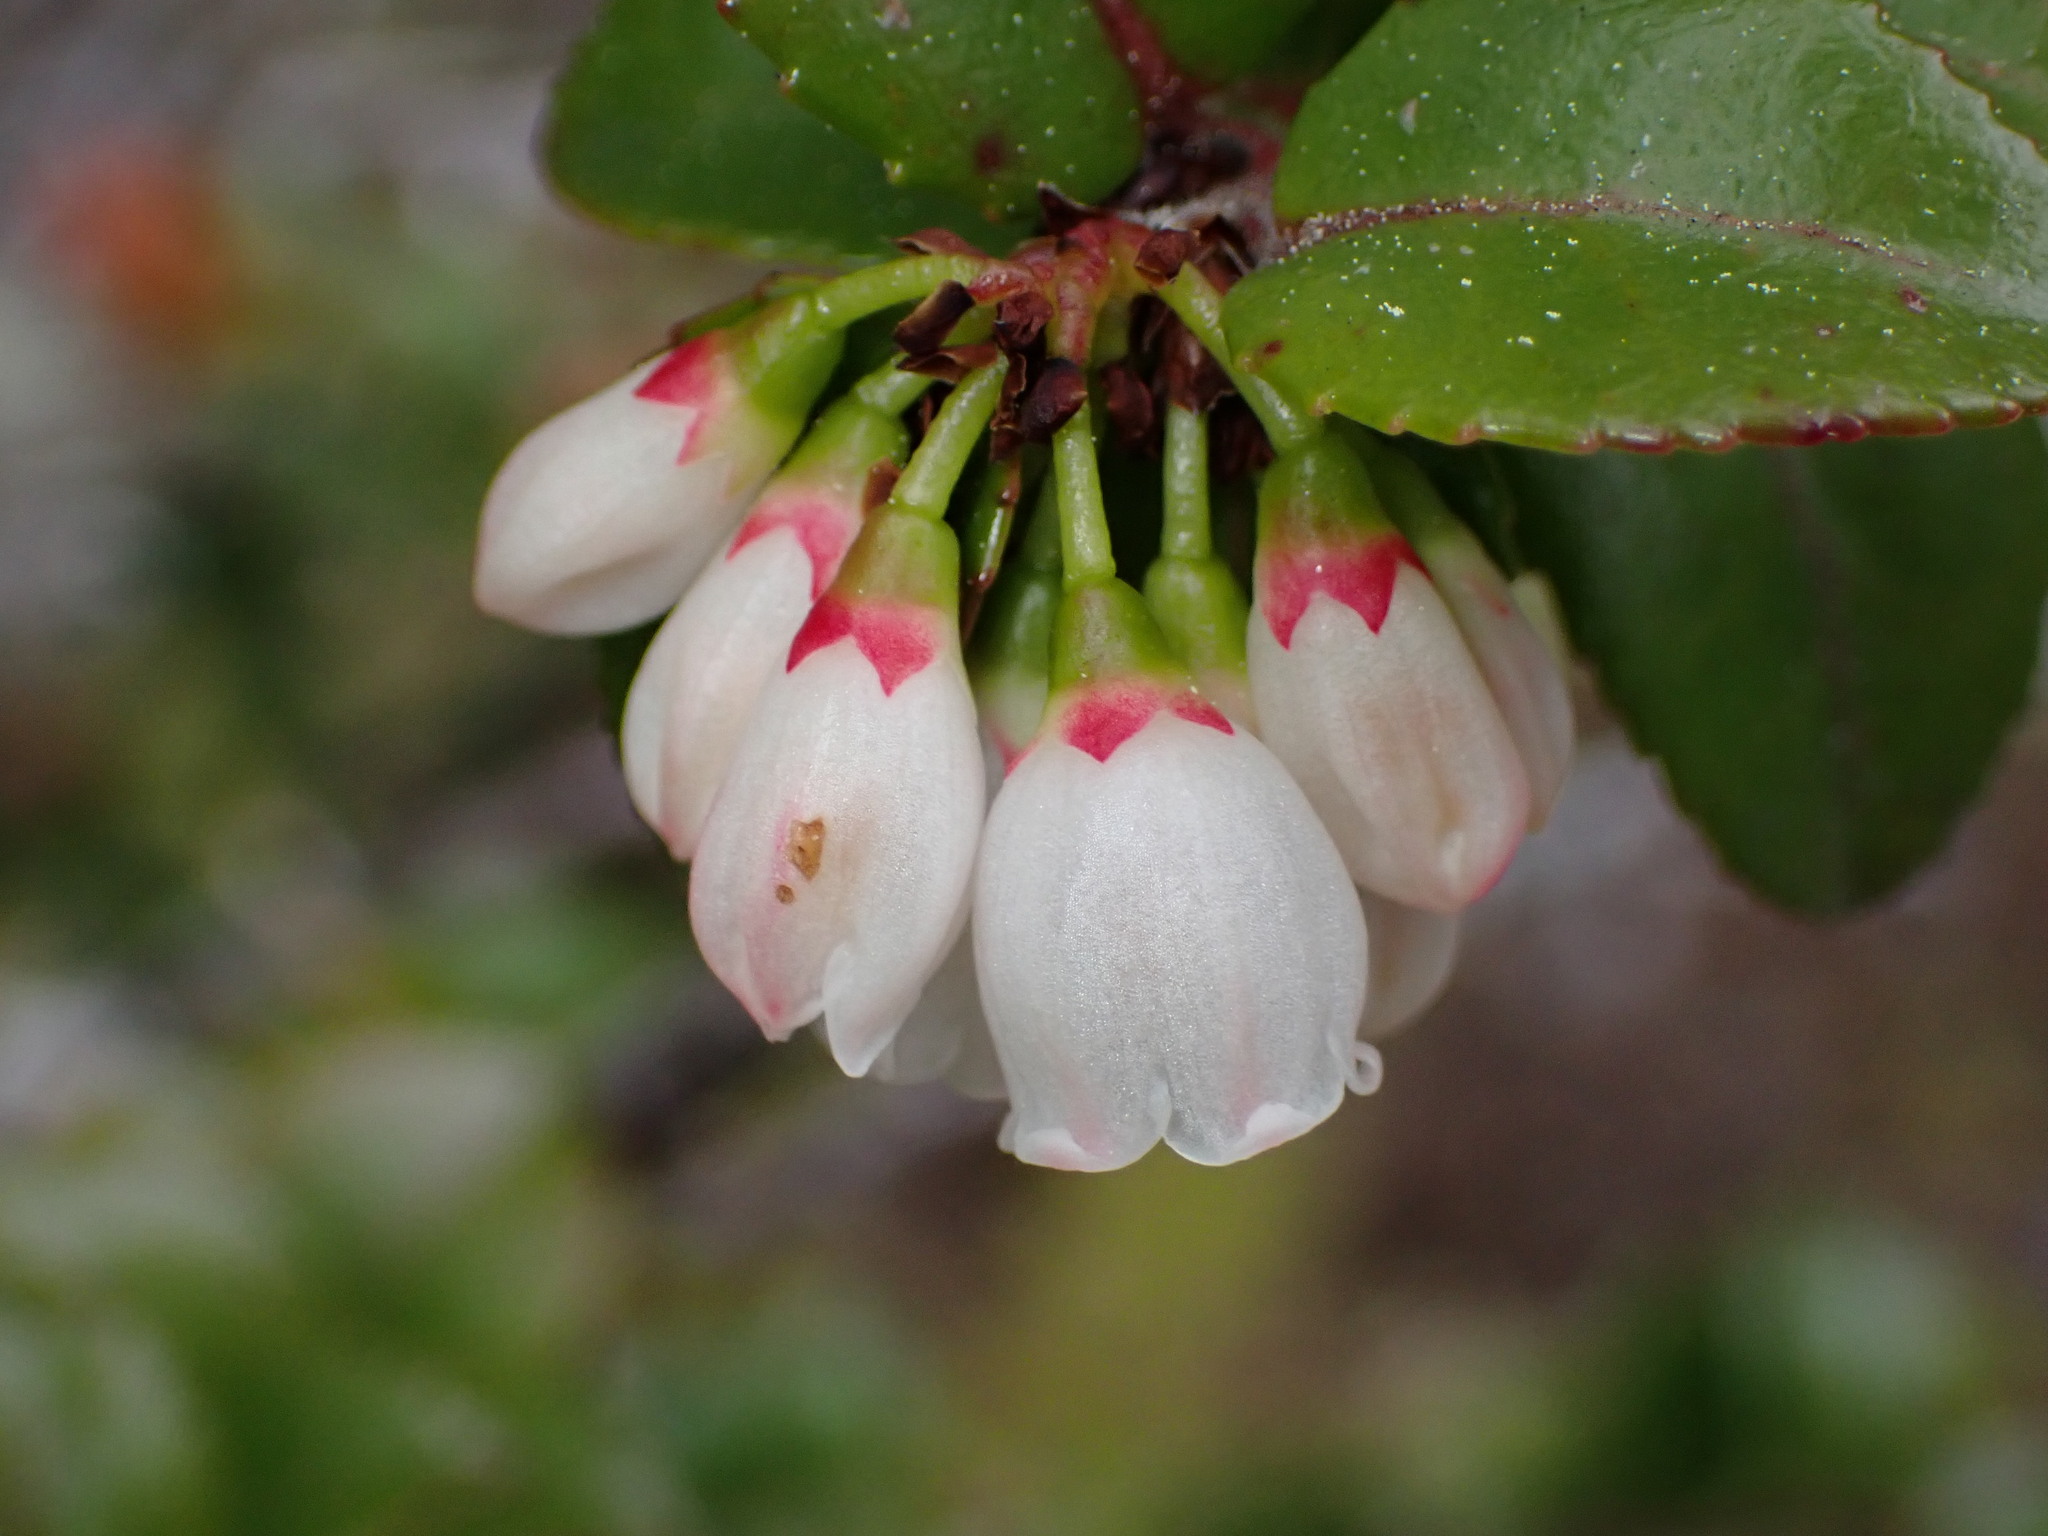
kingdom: Plantae
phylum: Tracheophyta
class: Magnoliopsida
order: Ericales
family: Ericaceae
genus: Vaccinium
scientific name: Vaccinium ovatum
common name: California-huckleberry
